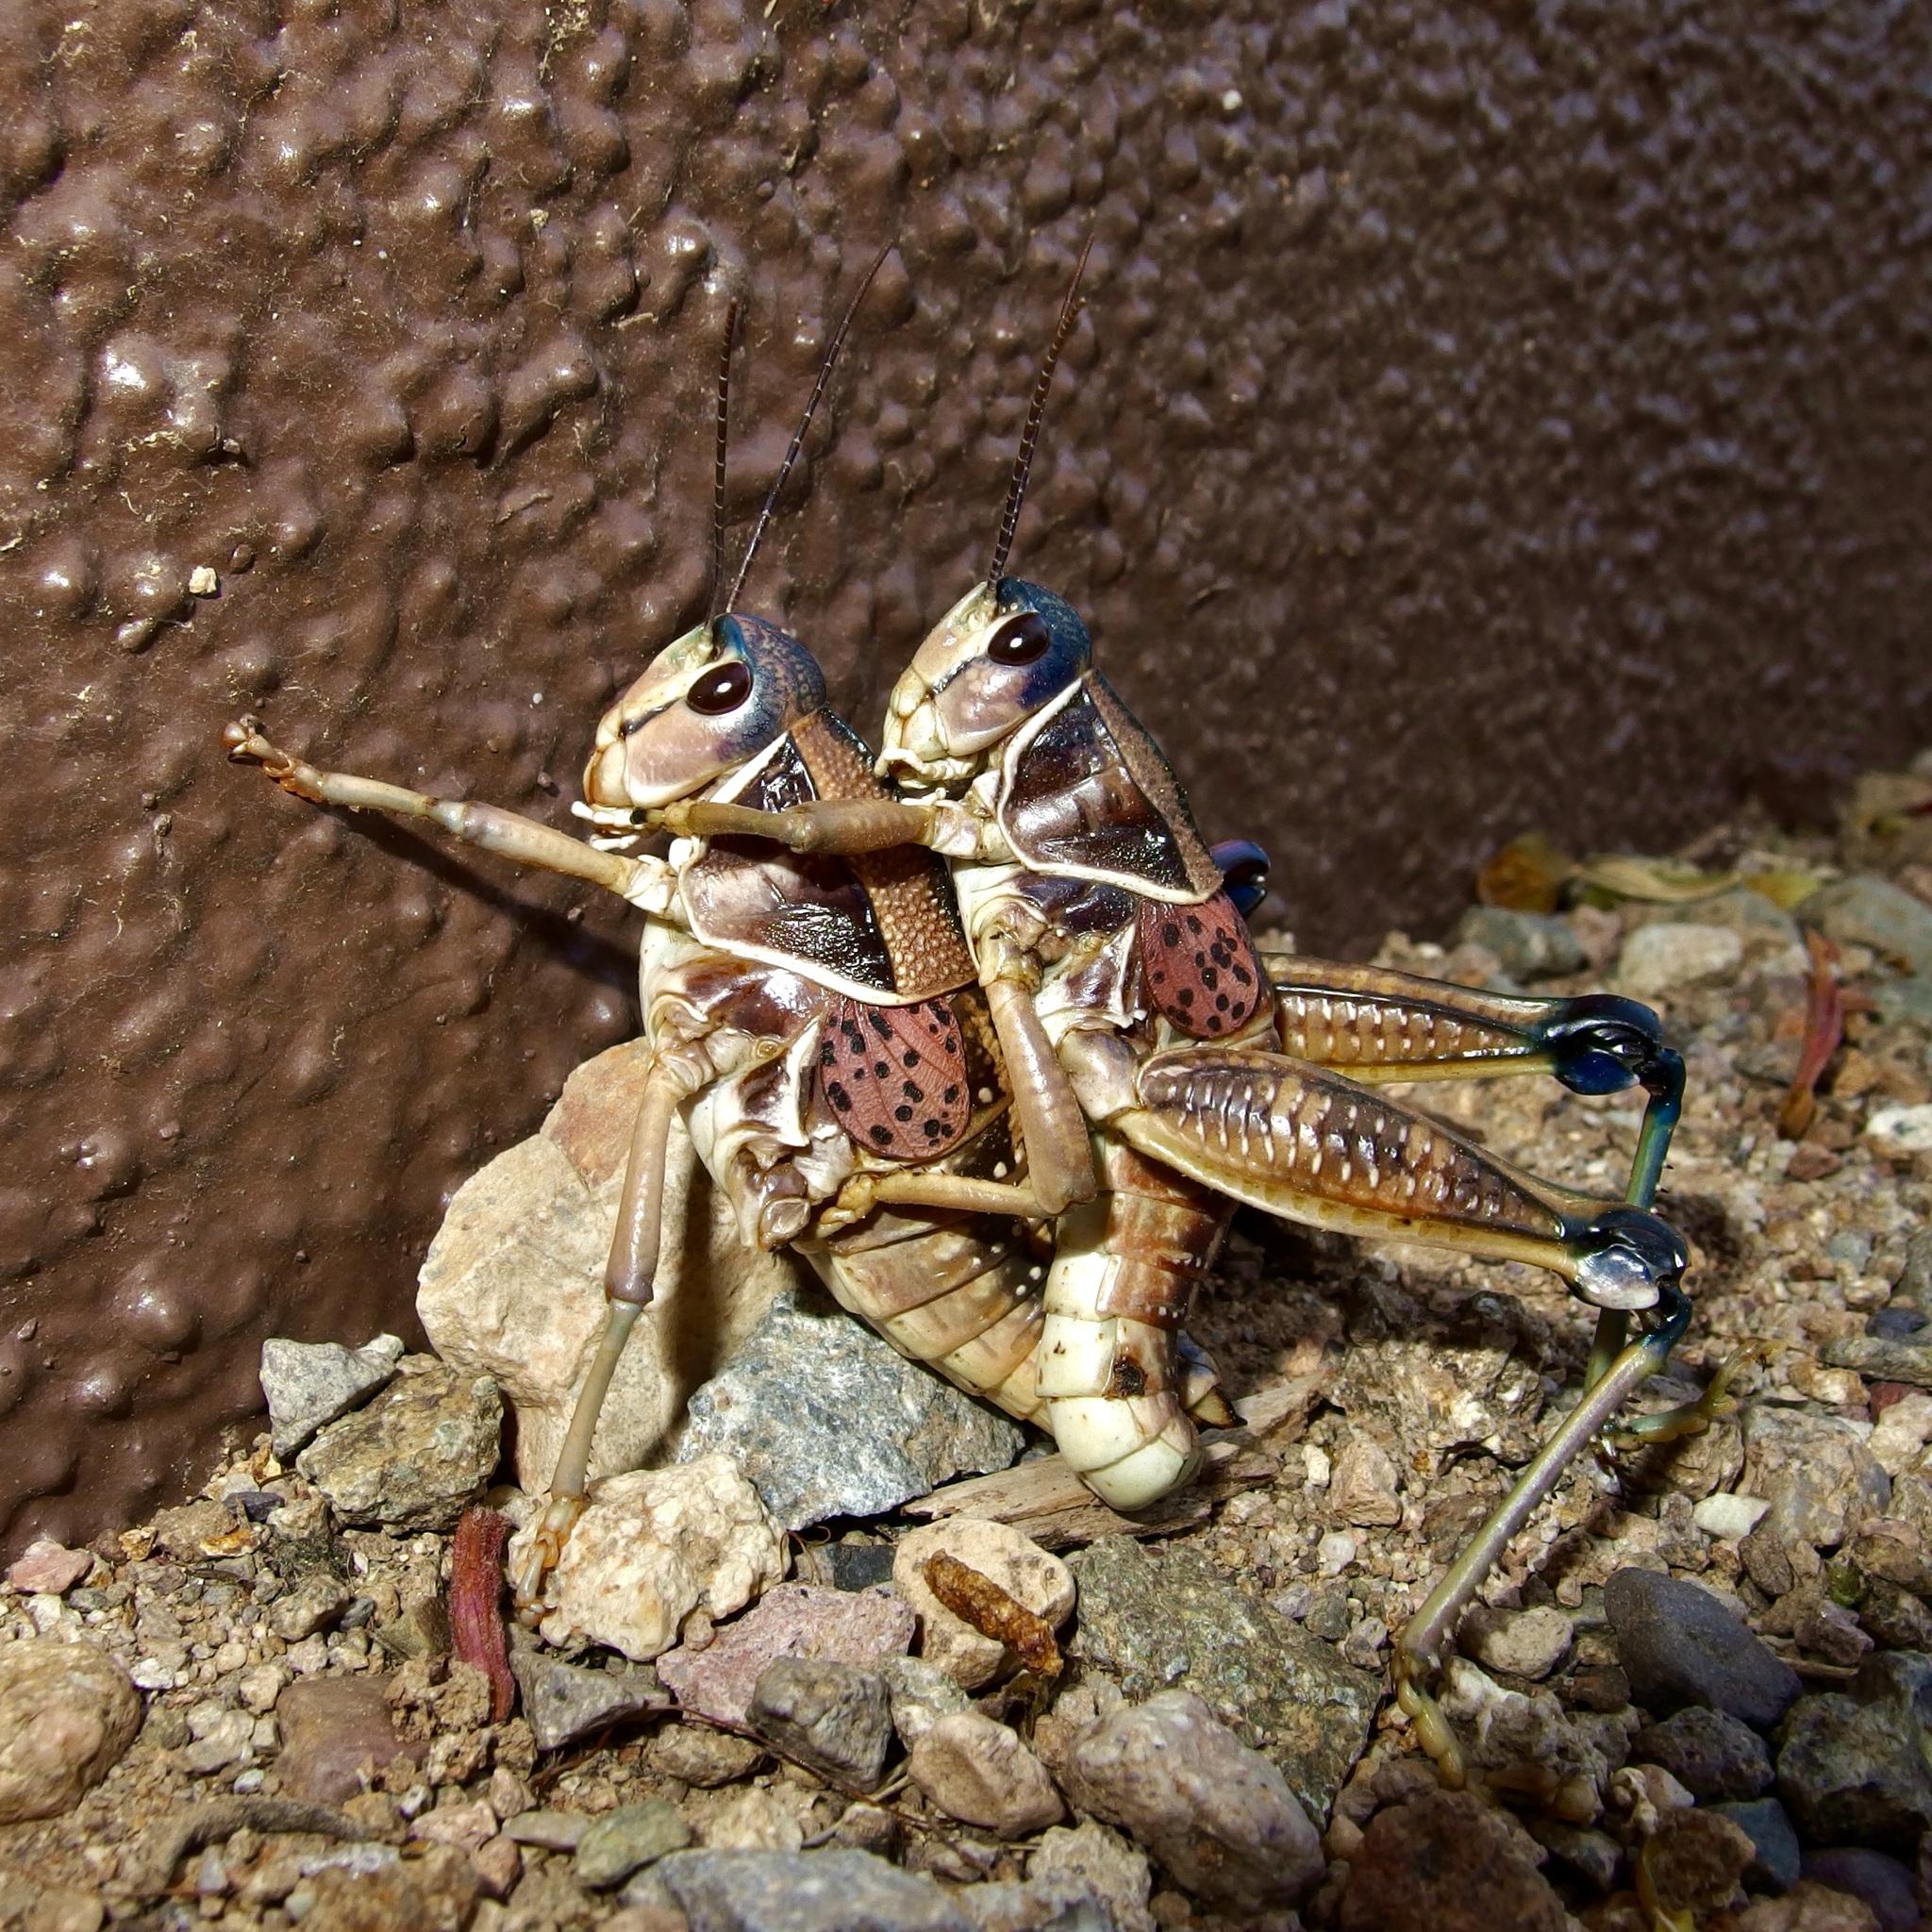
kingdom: Animalia
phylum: Arthropoda
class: Insecta
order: Orthoptera
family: Romaleidae
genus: Brachystola
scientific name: Brachystola magna
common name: Plains lubber grasshopper
